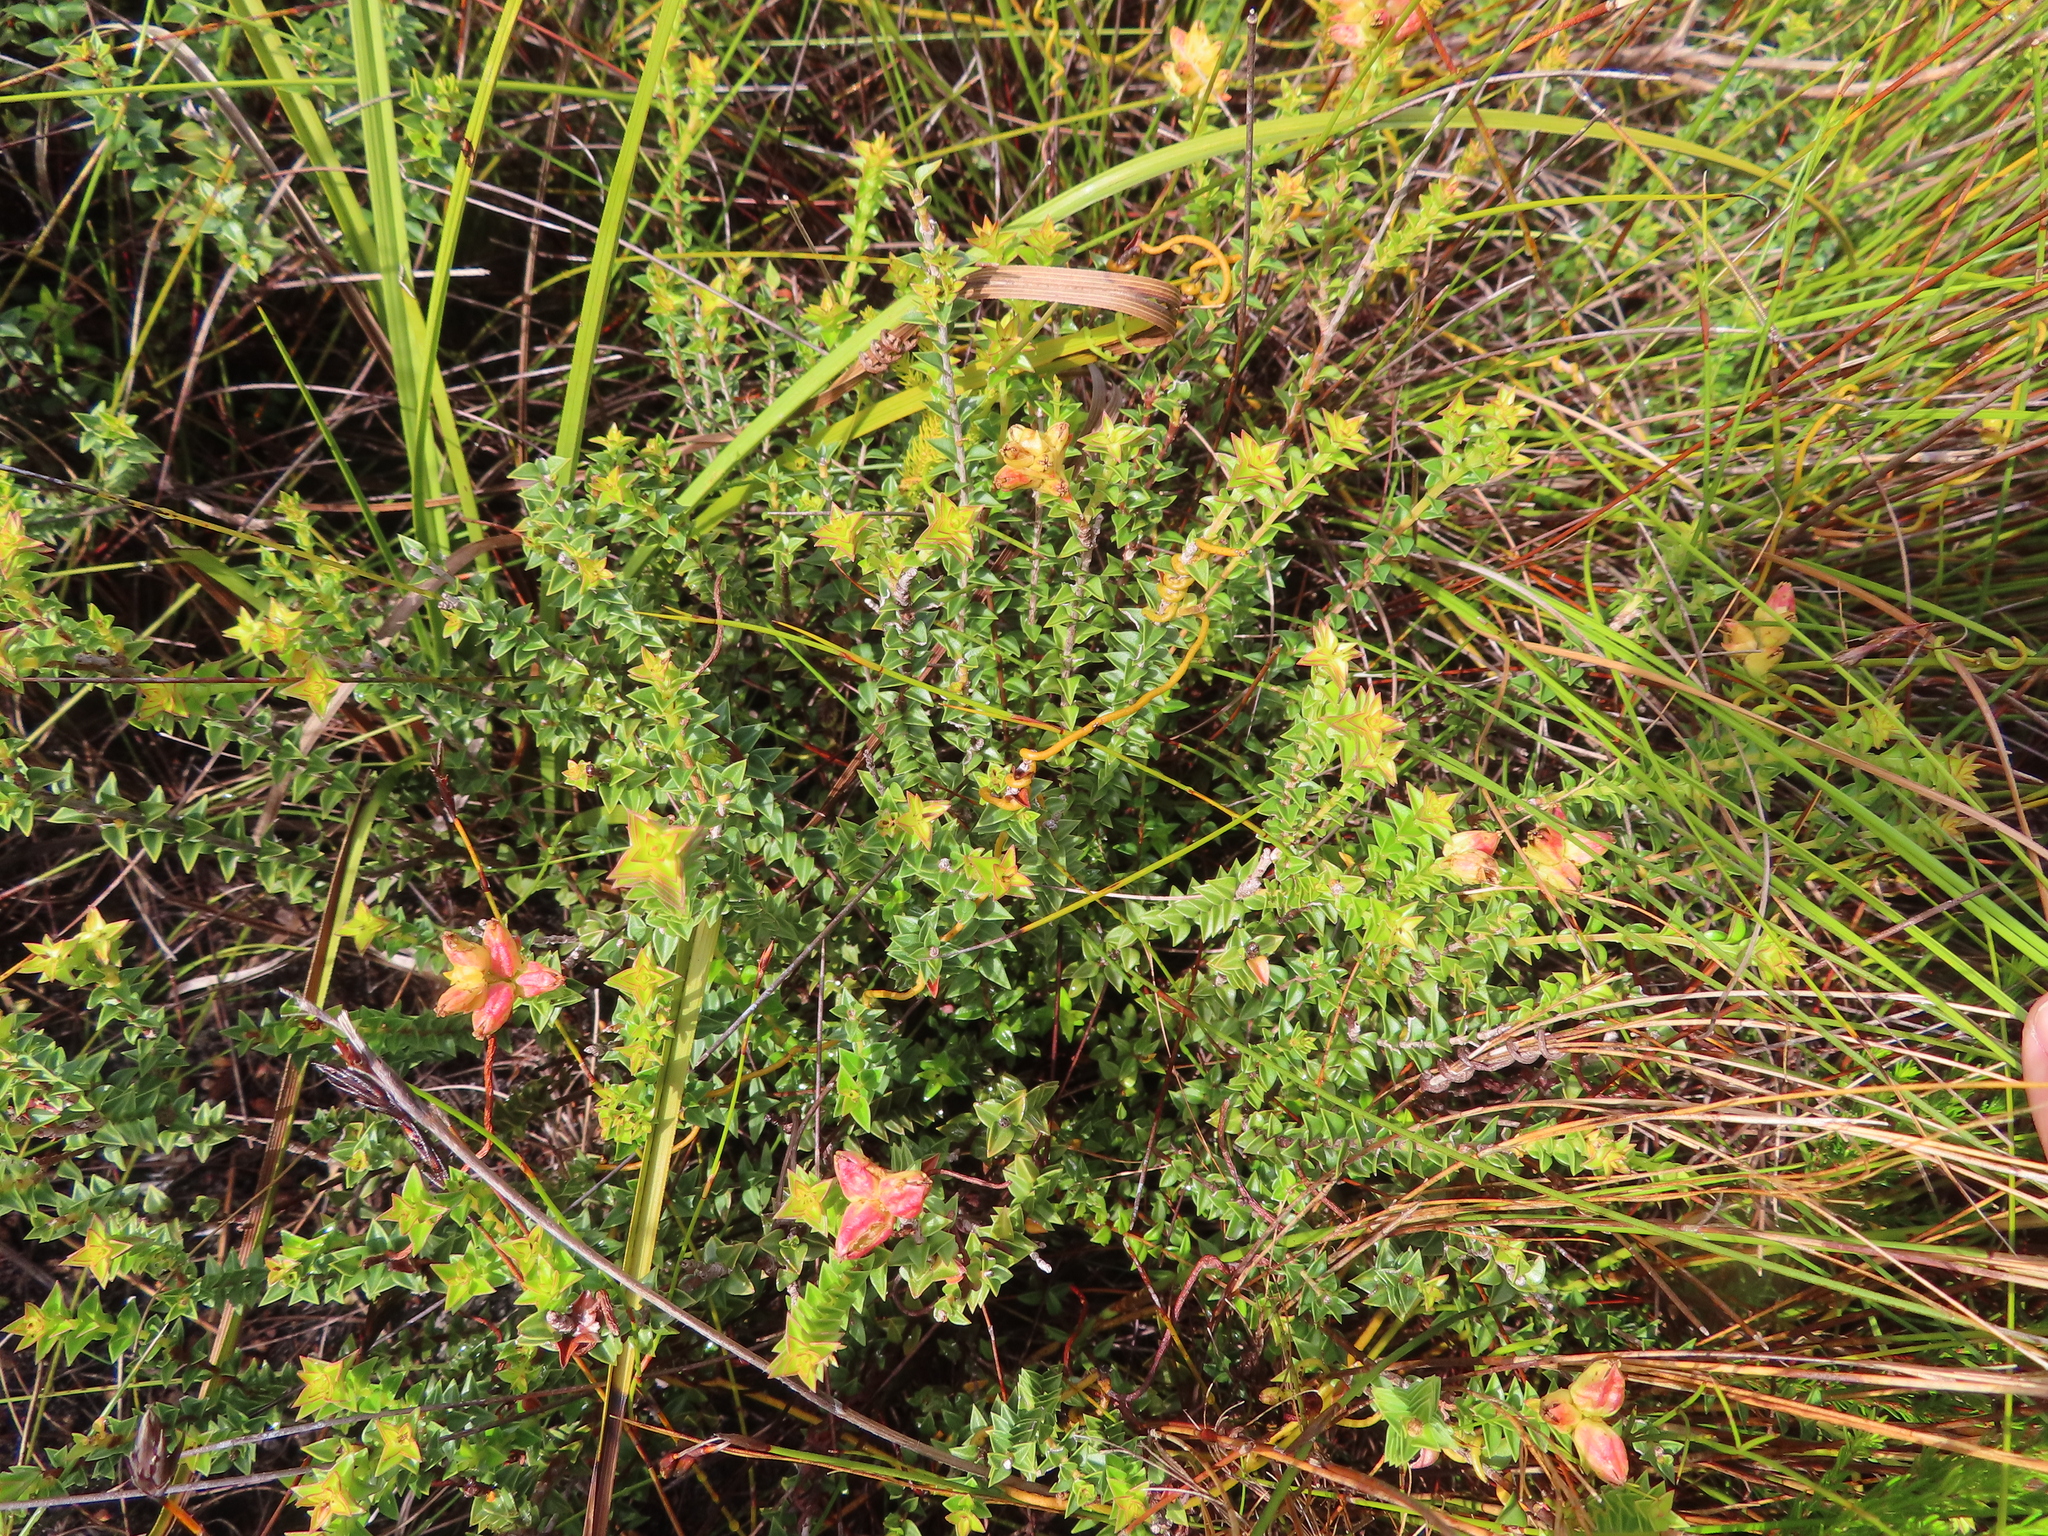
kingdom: Plantae
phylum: Tracheophyta
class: Magnoliopsida
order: Myrtales
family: Penaeaceae
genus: Penaea
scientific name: Penaea mucronata
